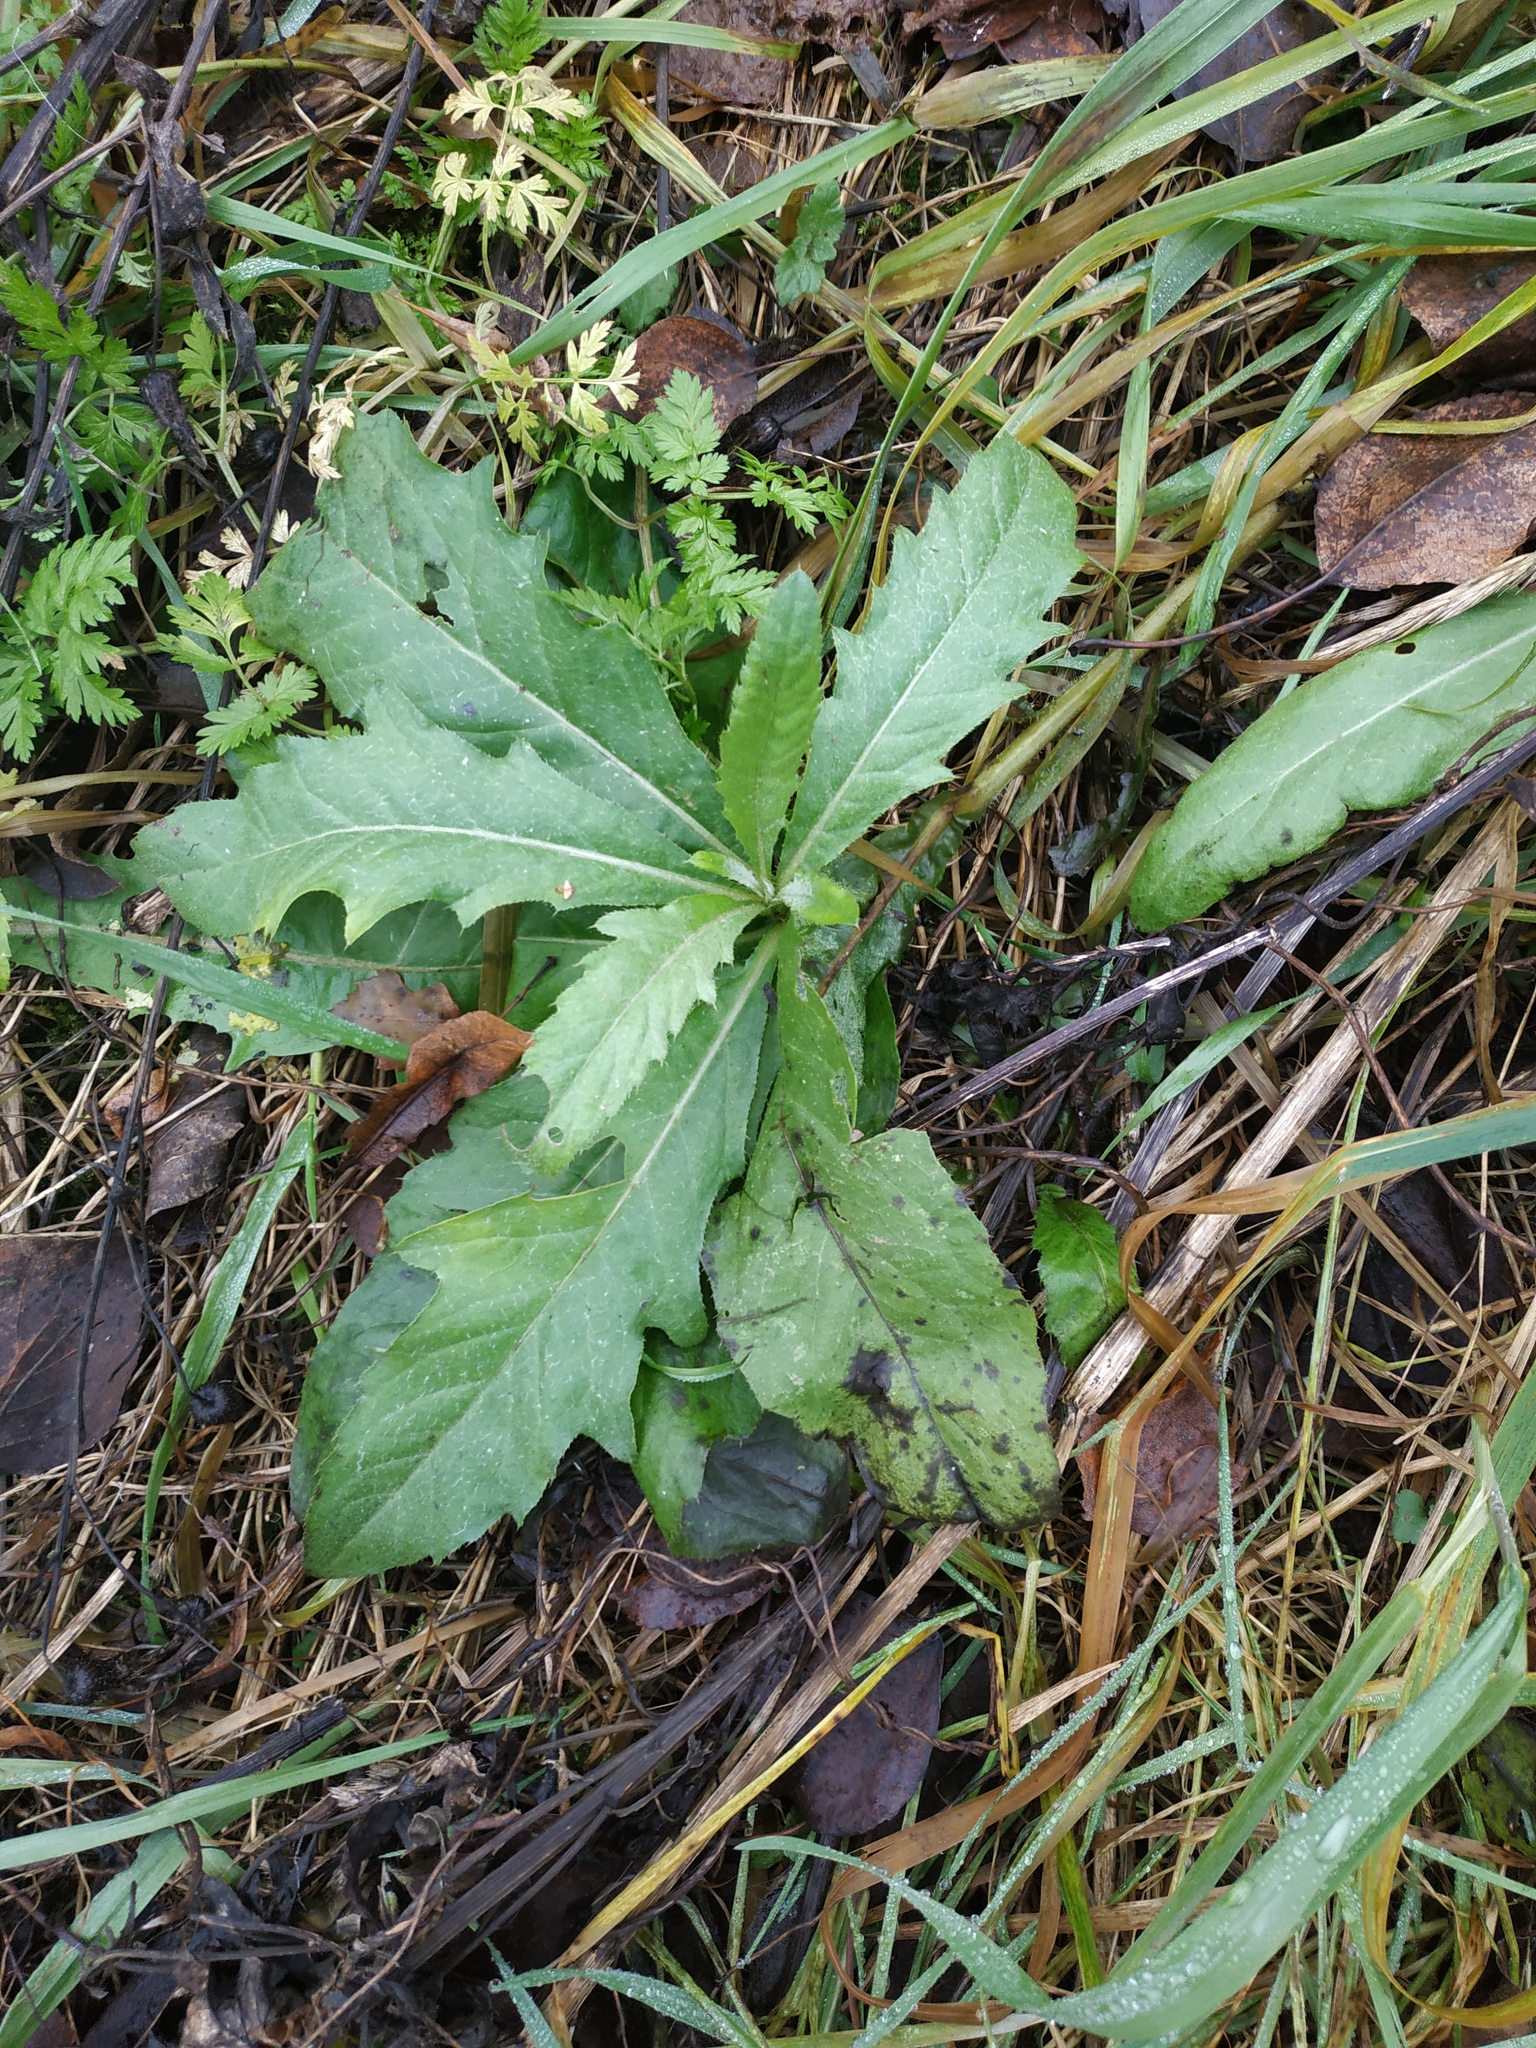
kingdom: Plantae
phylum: Tracheophyta
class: Magnoliopsida
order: Asterales
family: Asteraceae
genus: Cirsium
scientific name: Cirsium arvense
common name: Creeping thistle
